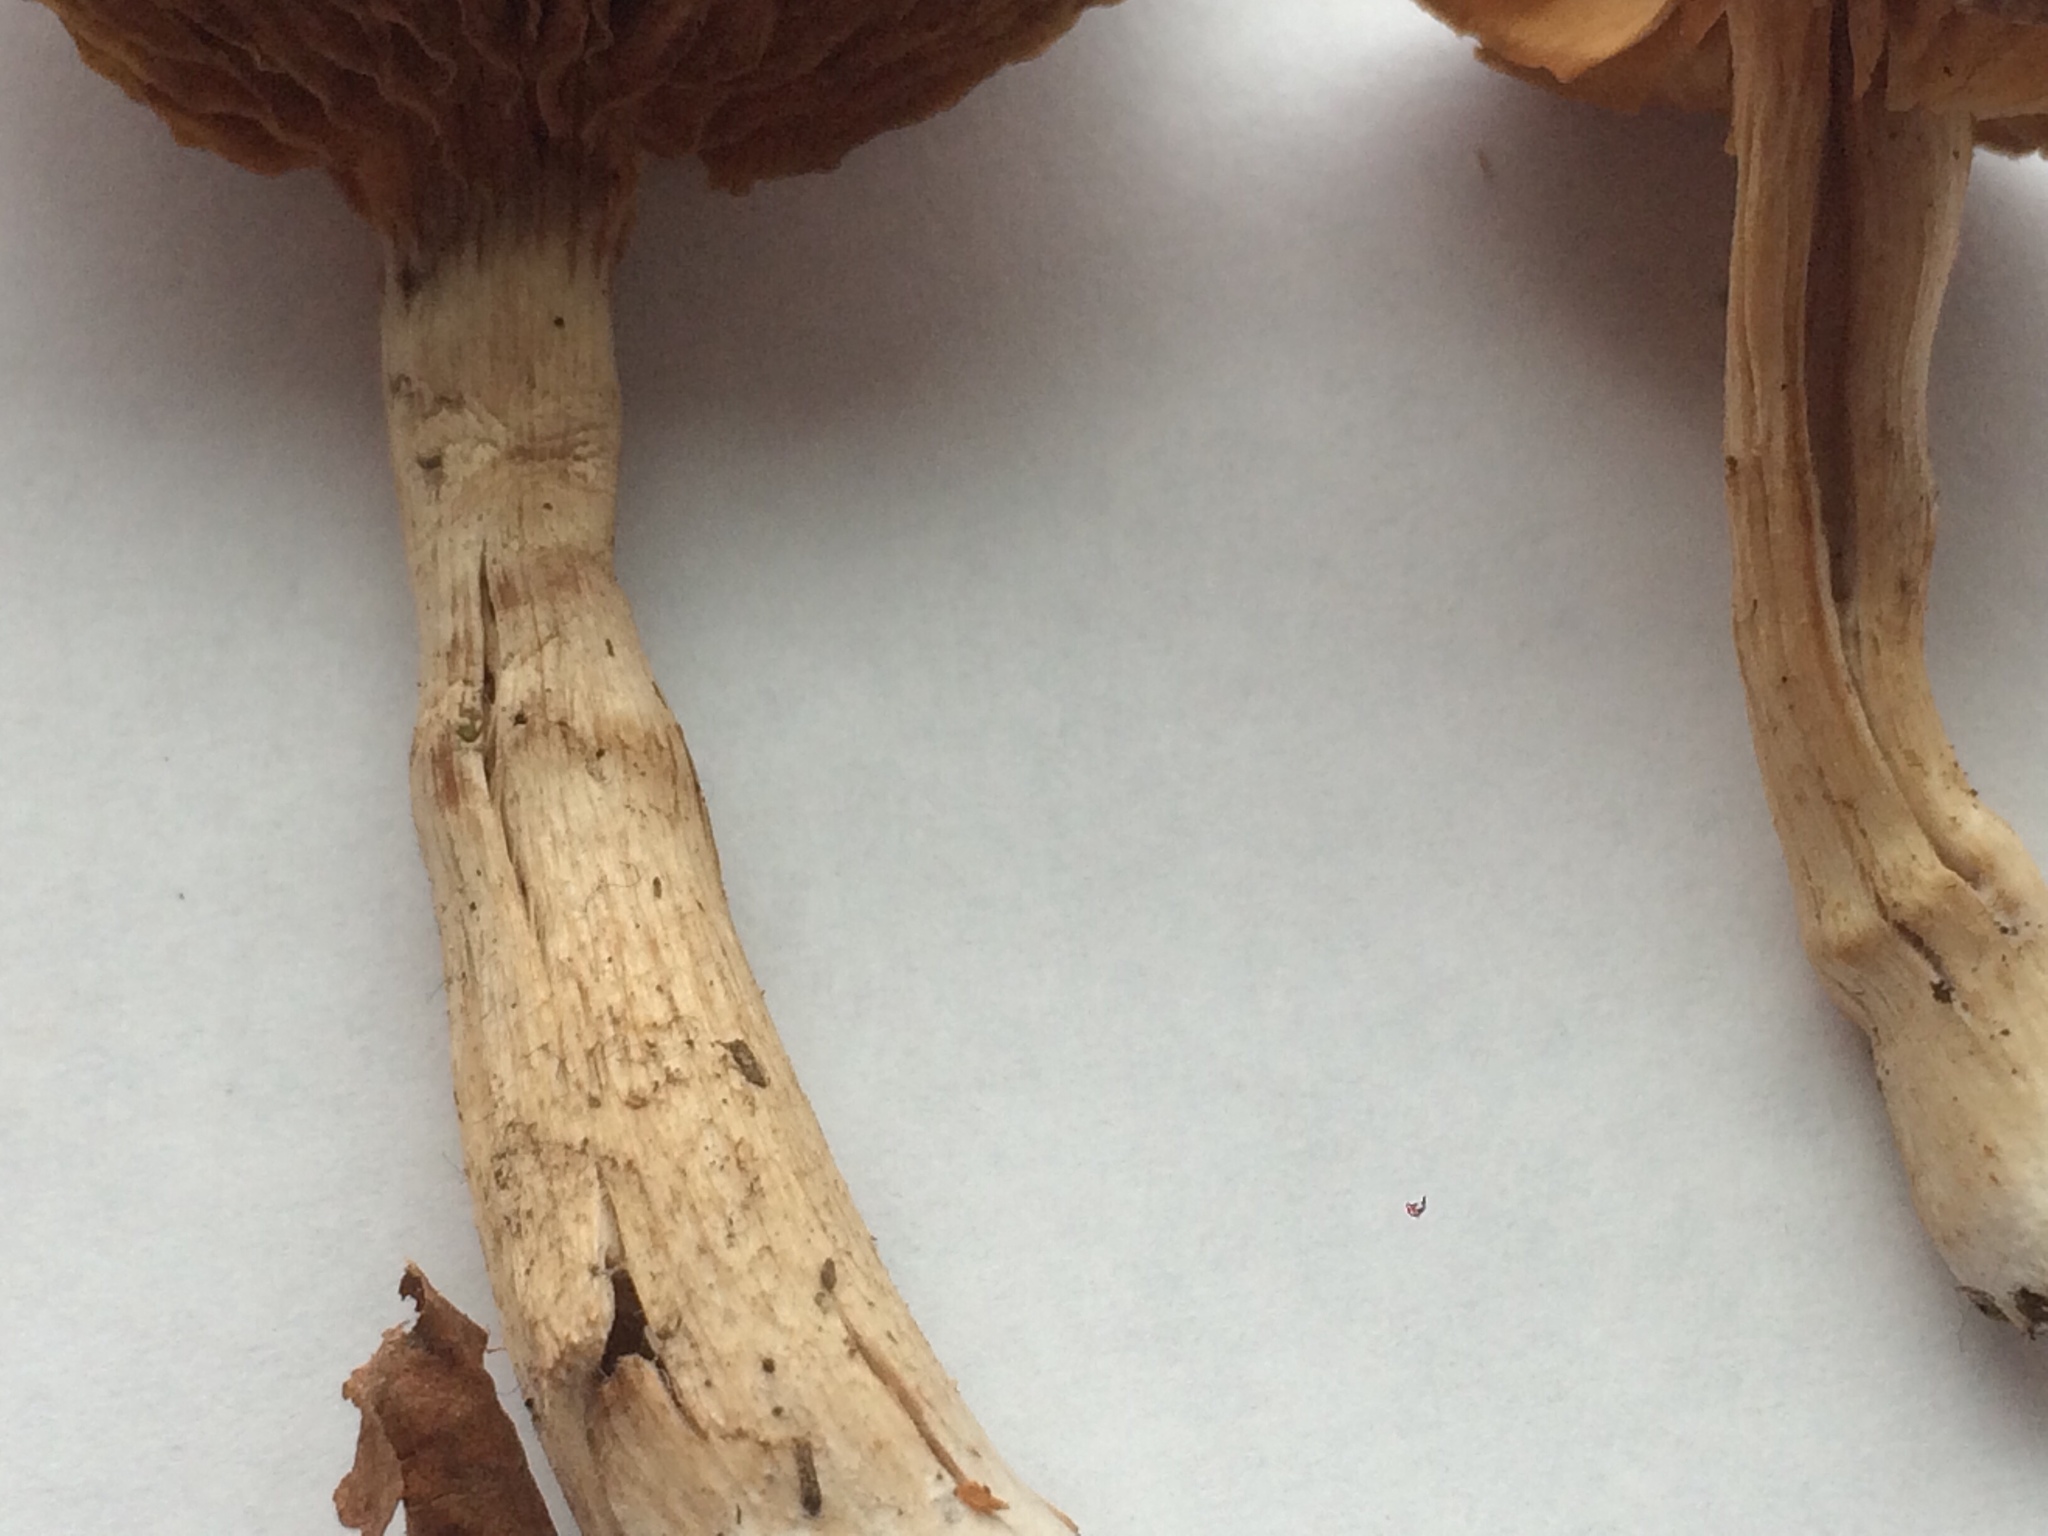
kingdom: Fungi
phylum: Basidiomycota
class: Agaricomycetes
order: Agaricales
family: Tubariaceae
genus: Tubaria
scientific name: Tubaria furfuracea
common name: Scurfy twiglet
